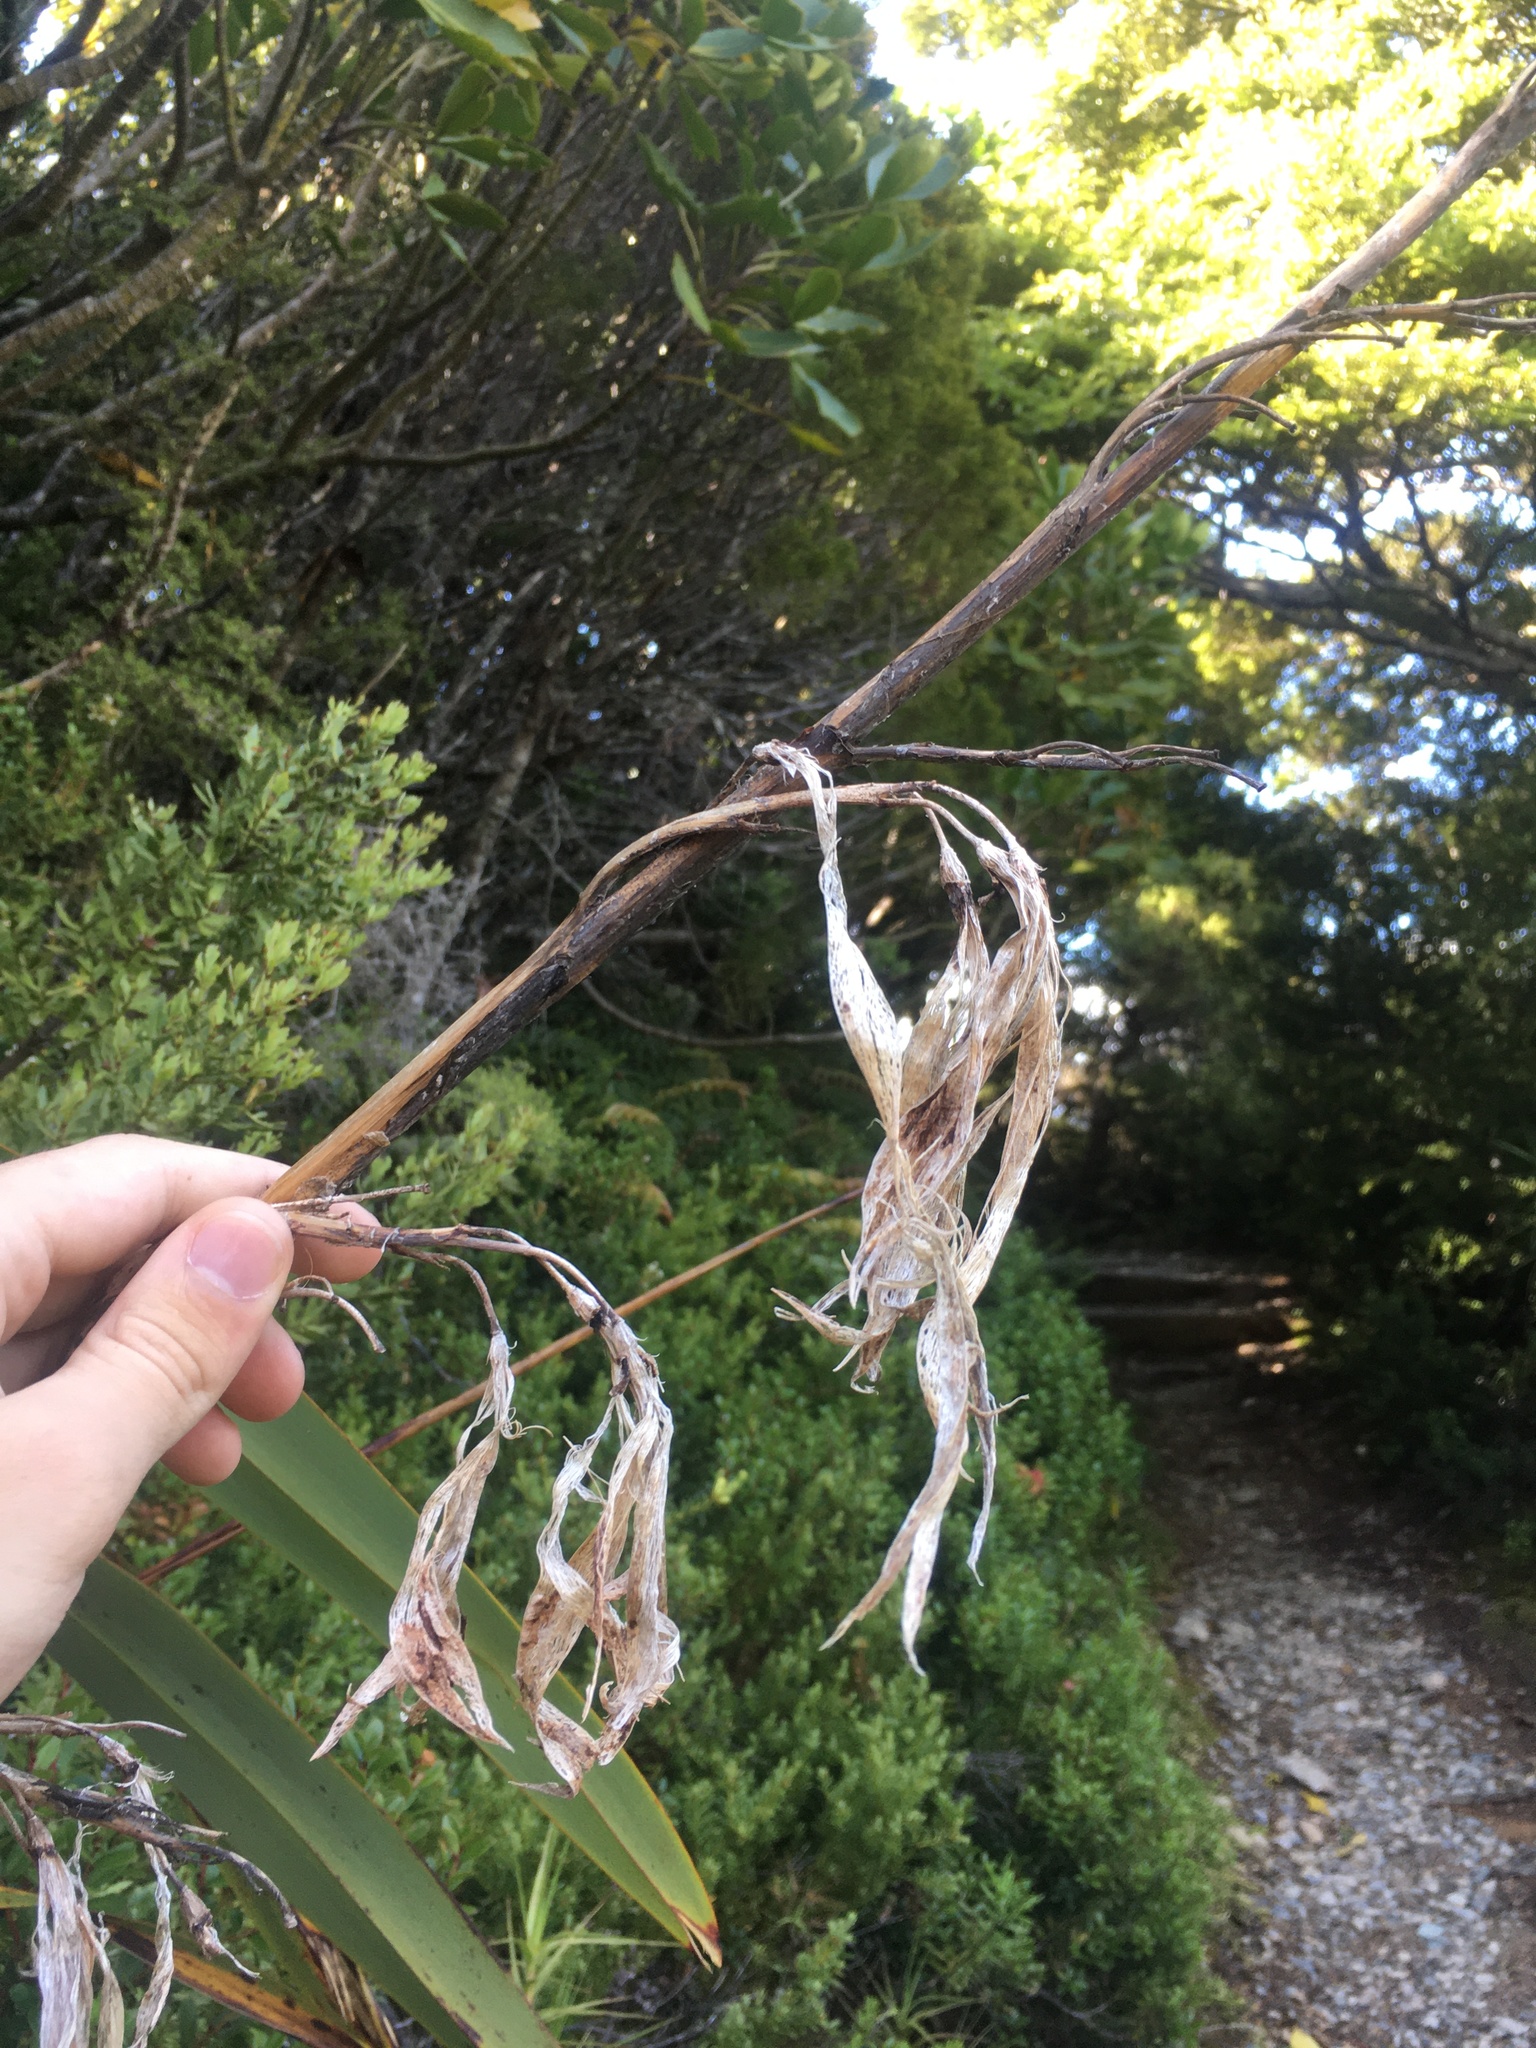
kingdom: Plantae
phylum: Tracheophyta
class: Liliopsida
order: Asparagales
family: Asphodelaceae
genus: Phormium
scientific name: Phormium colensoi
